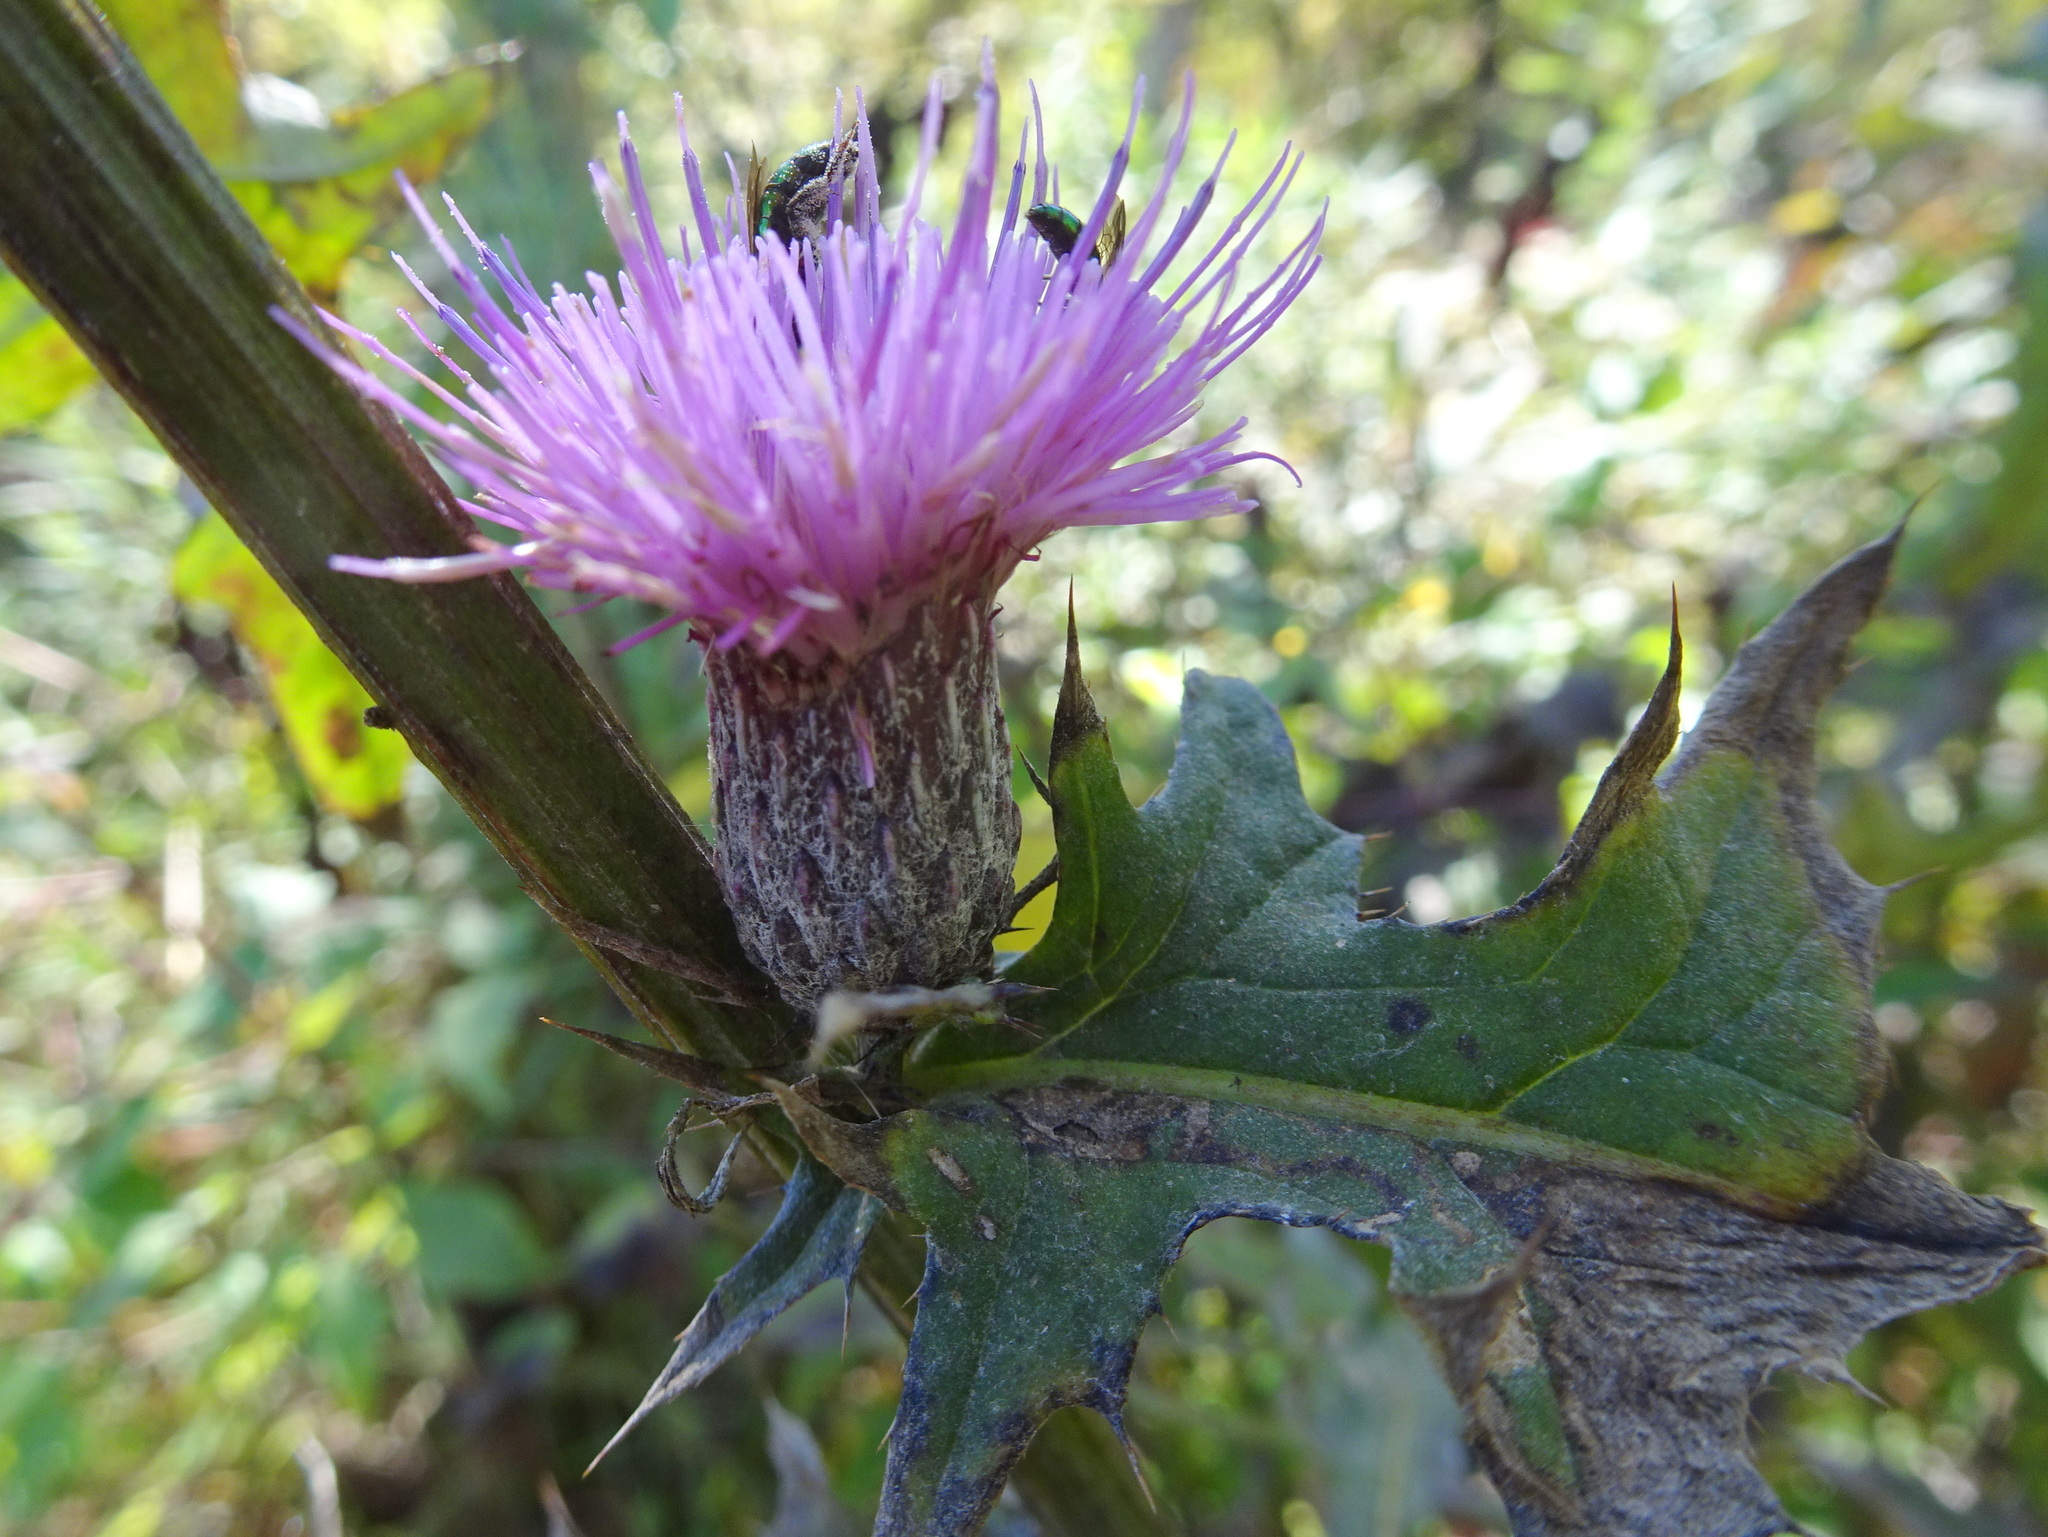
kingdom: Plantae
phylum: Tracheophyta
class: Magnoliopsida
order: Asterales
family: Asteraceae
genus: Cirsium
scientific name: Cirsium muticum
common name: Dunce-nettle
